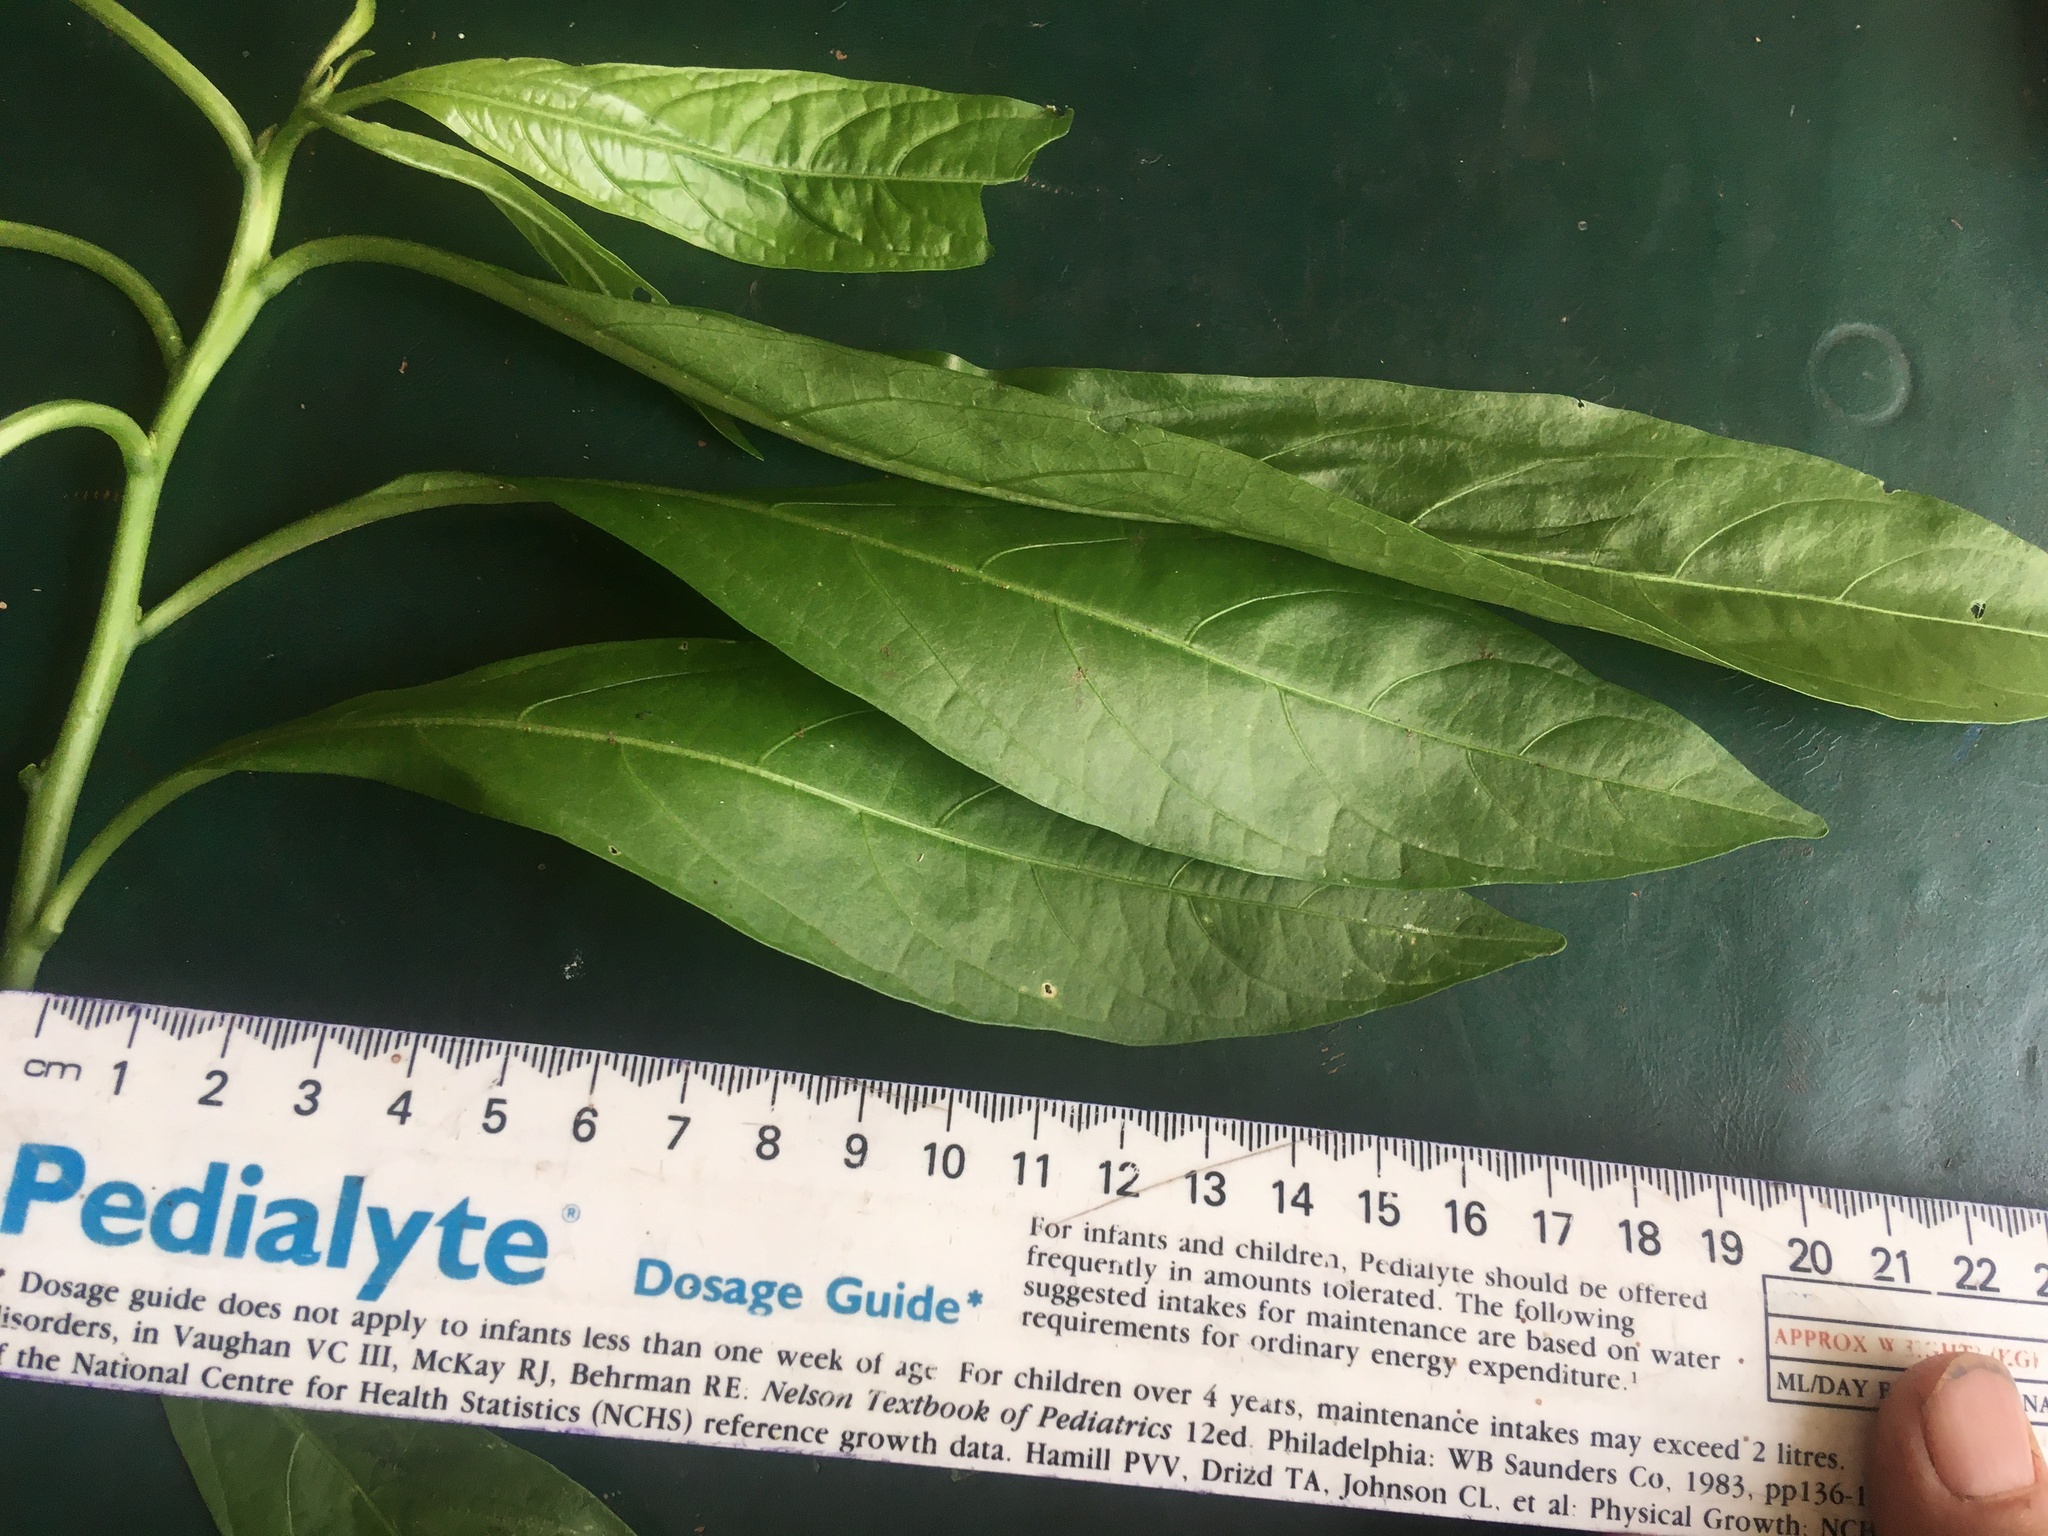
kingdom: Plantae
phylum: Tracheophyta
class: Magnoliopsida
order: Solanales
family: Solanaceae
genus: Cestrum
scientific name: Cestrum nocturnum
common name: Night jessamine
